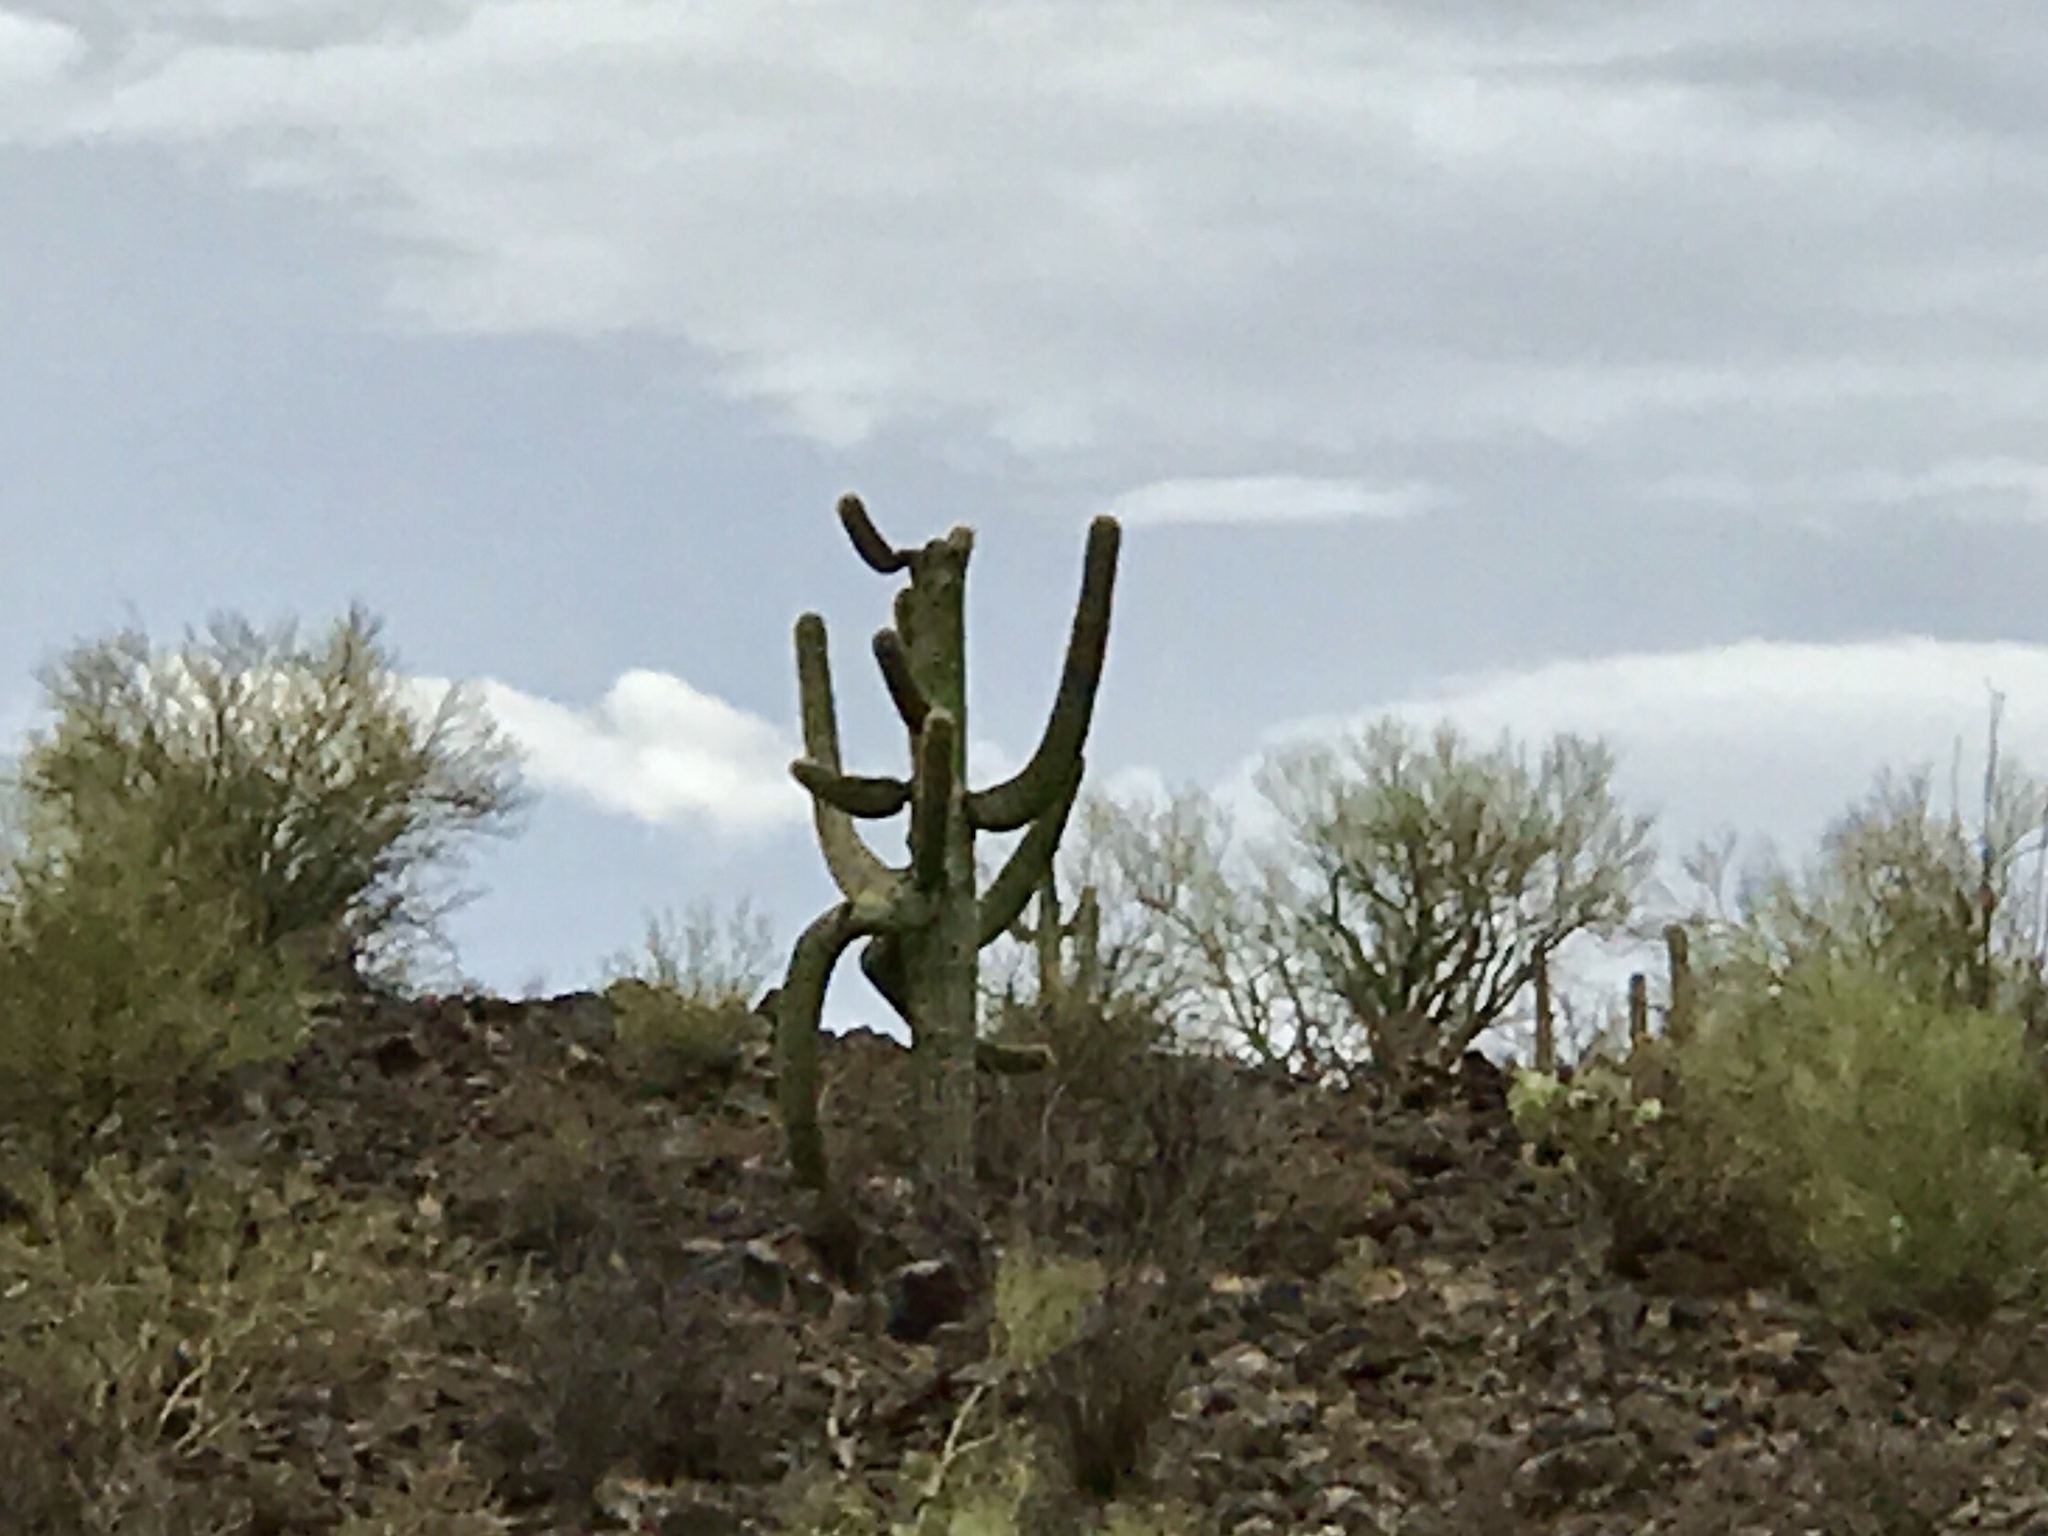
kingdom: Plantae
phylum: Tracheophyta
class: Magnoliopsida
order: Caryophyllales
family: Cactaceae
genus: Carnegiea
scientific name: Carnegiea gigantea
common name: Saguaro
